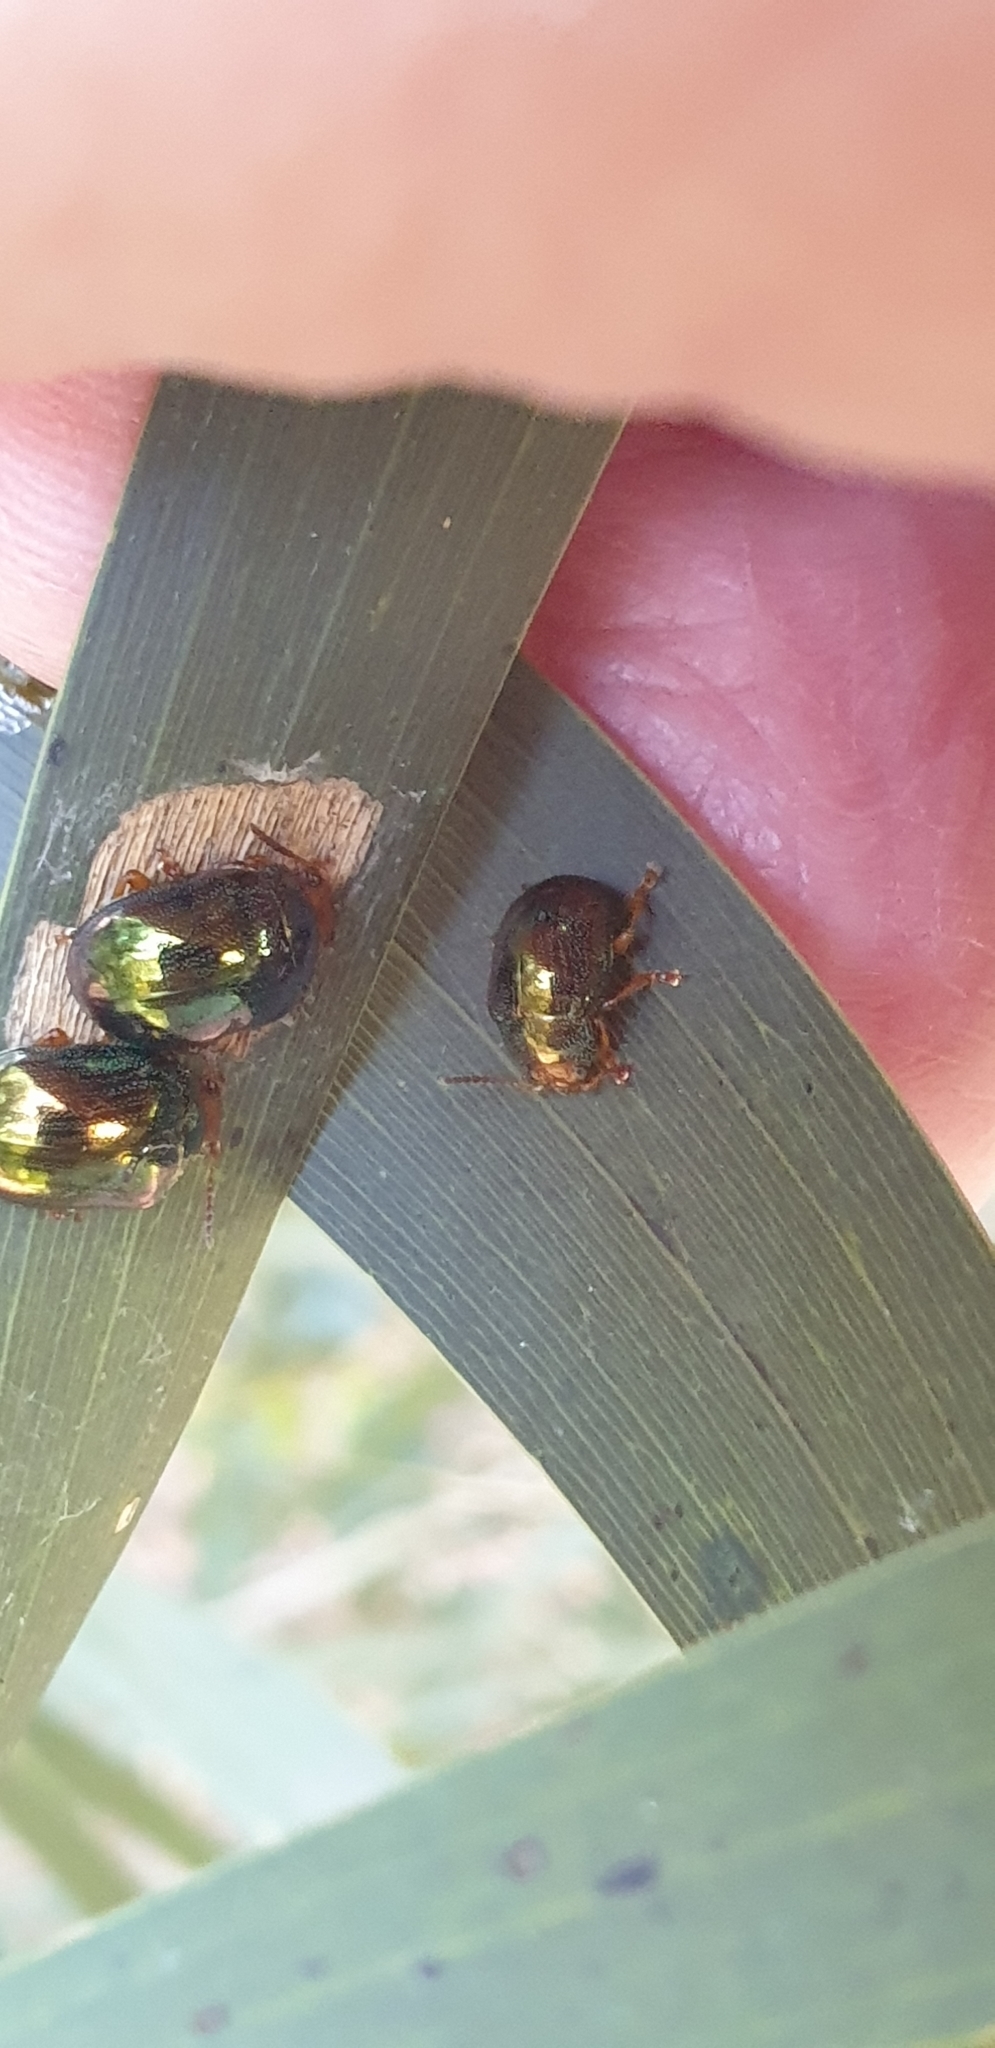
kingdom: Animalia
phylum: Arthropoda
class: Insecta
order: Coleoptera
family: Chrysomelidae
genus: Calomela
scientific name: Calomela
